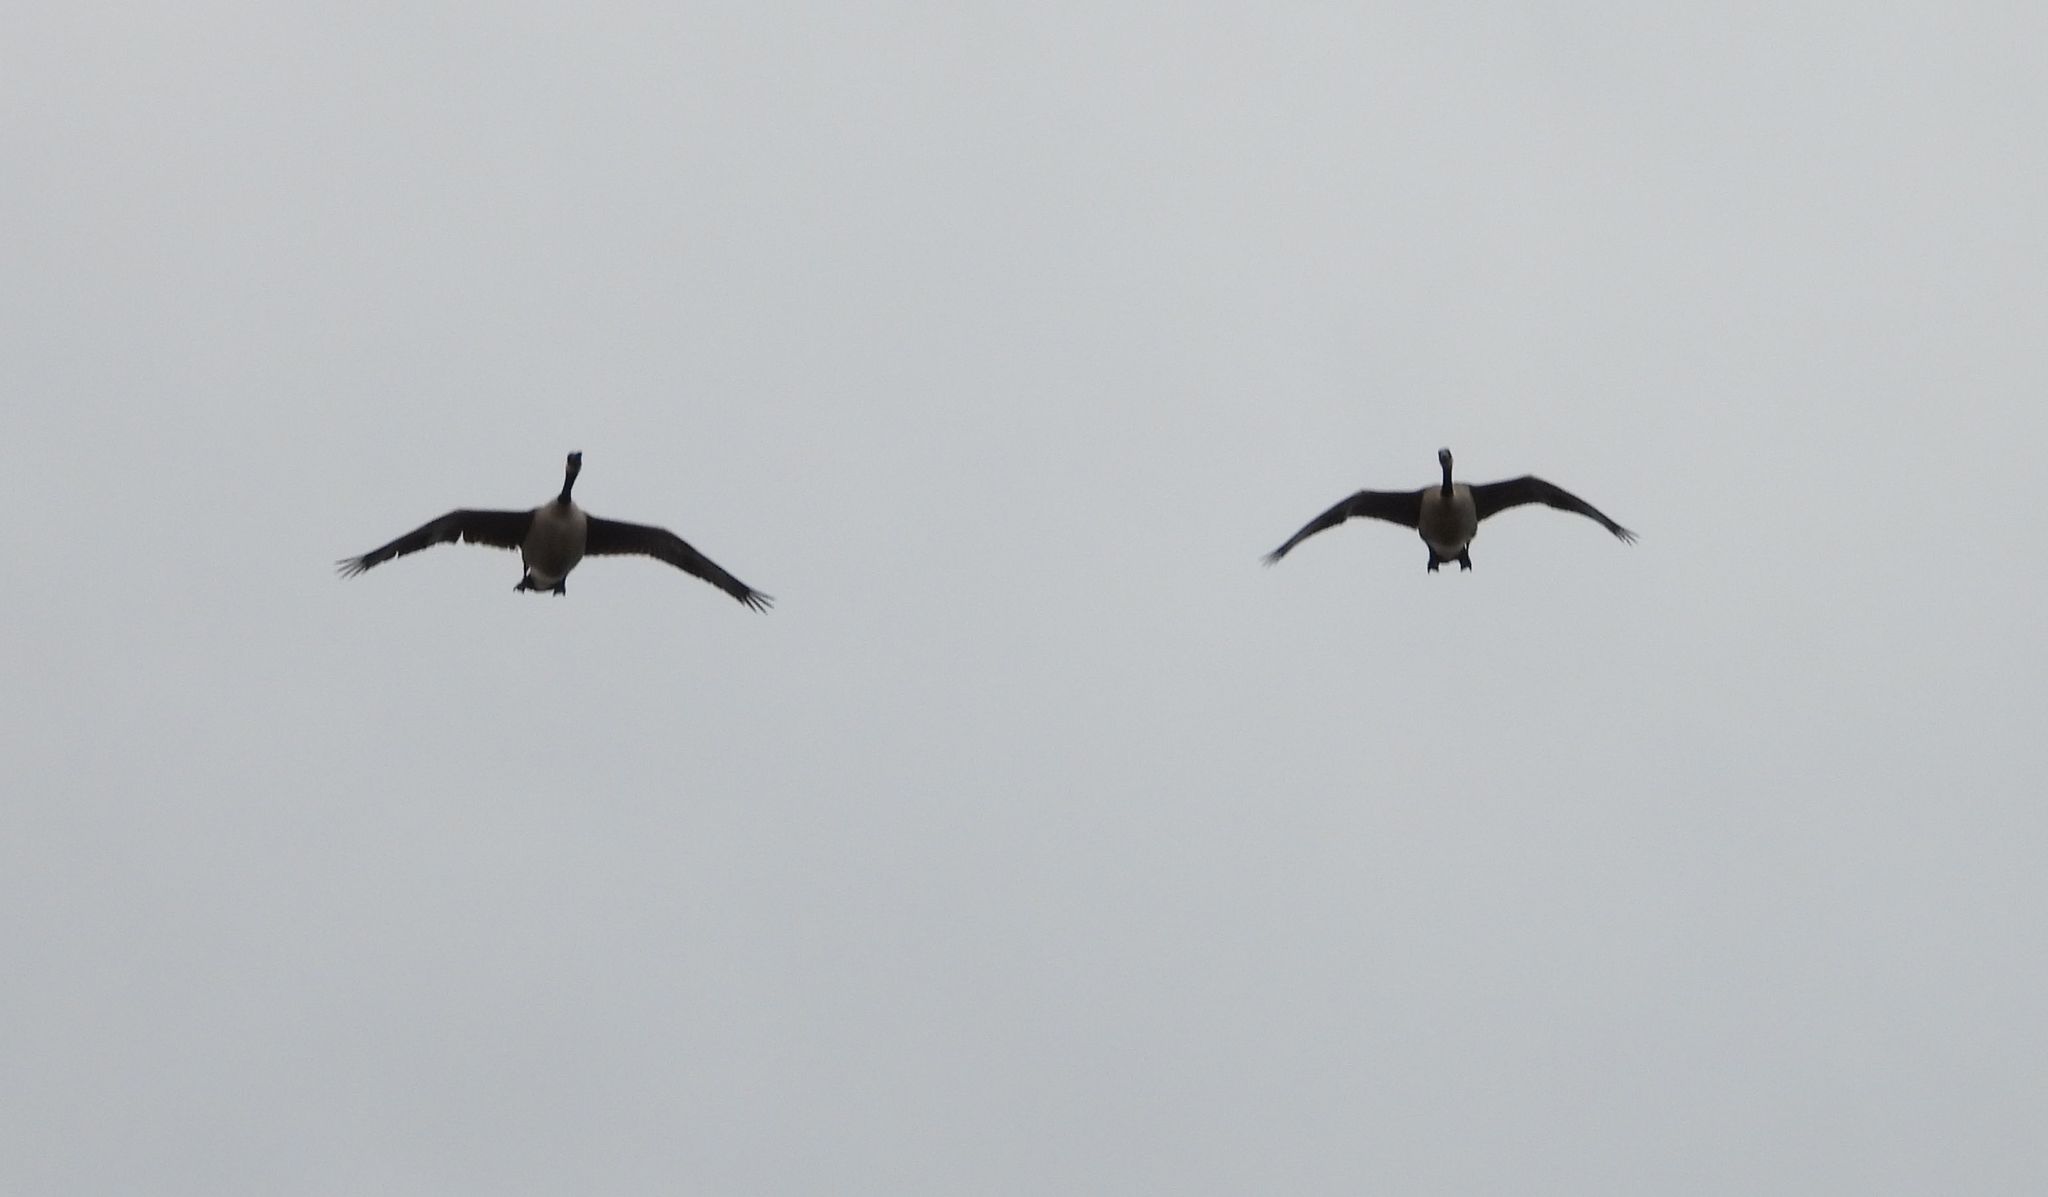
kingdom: Animalia
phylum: Chordata
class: Aves
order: Anseriformes
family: Anatidae
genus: Branta
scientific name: Branta canadensis
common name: Canada goose
